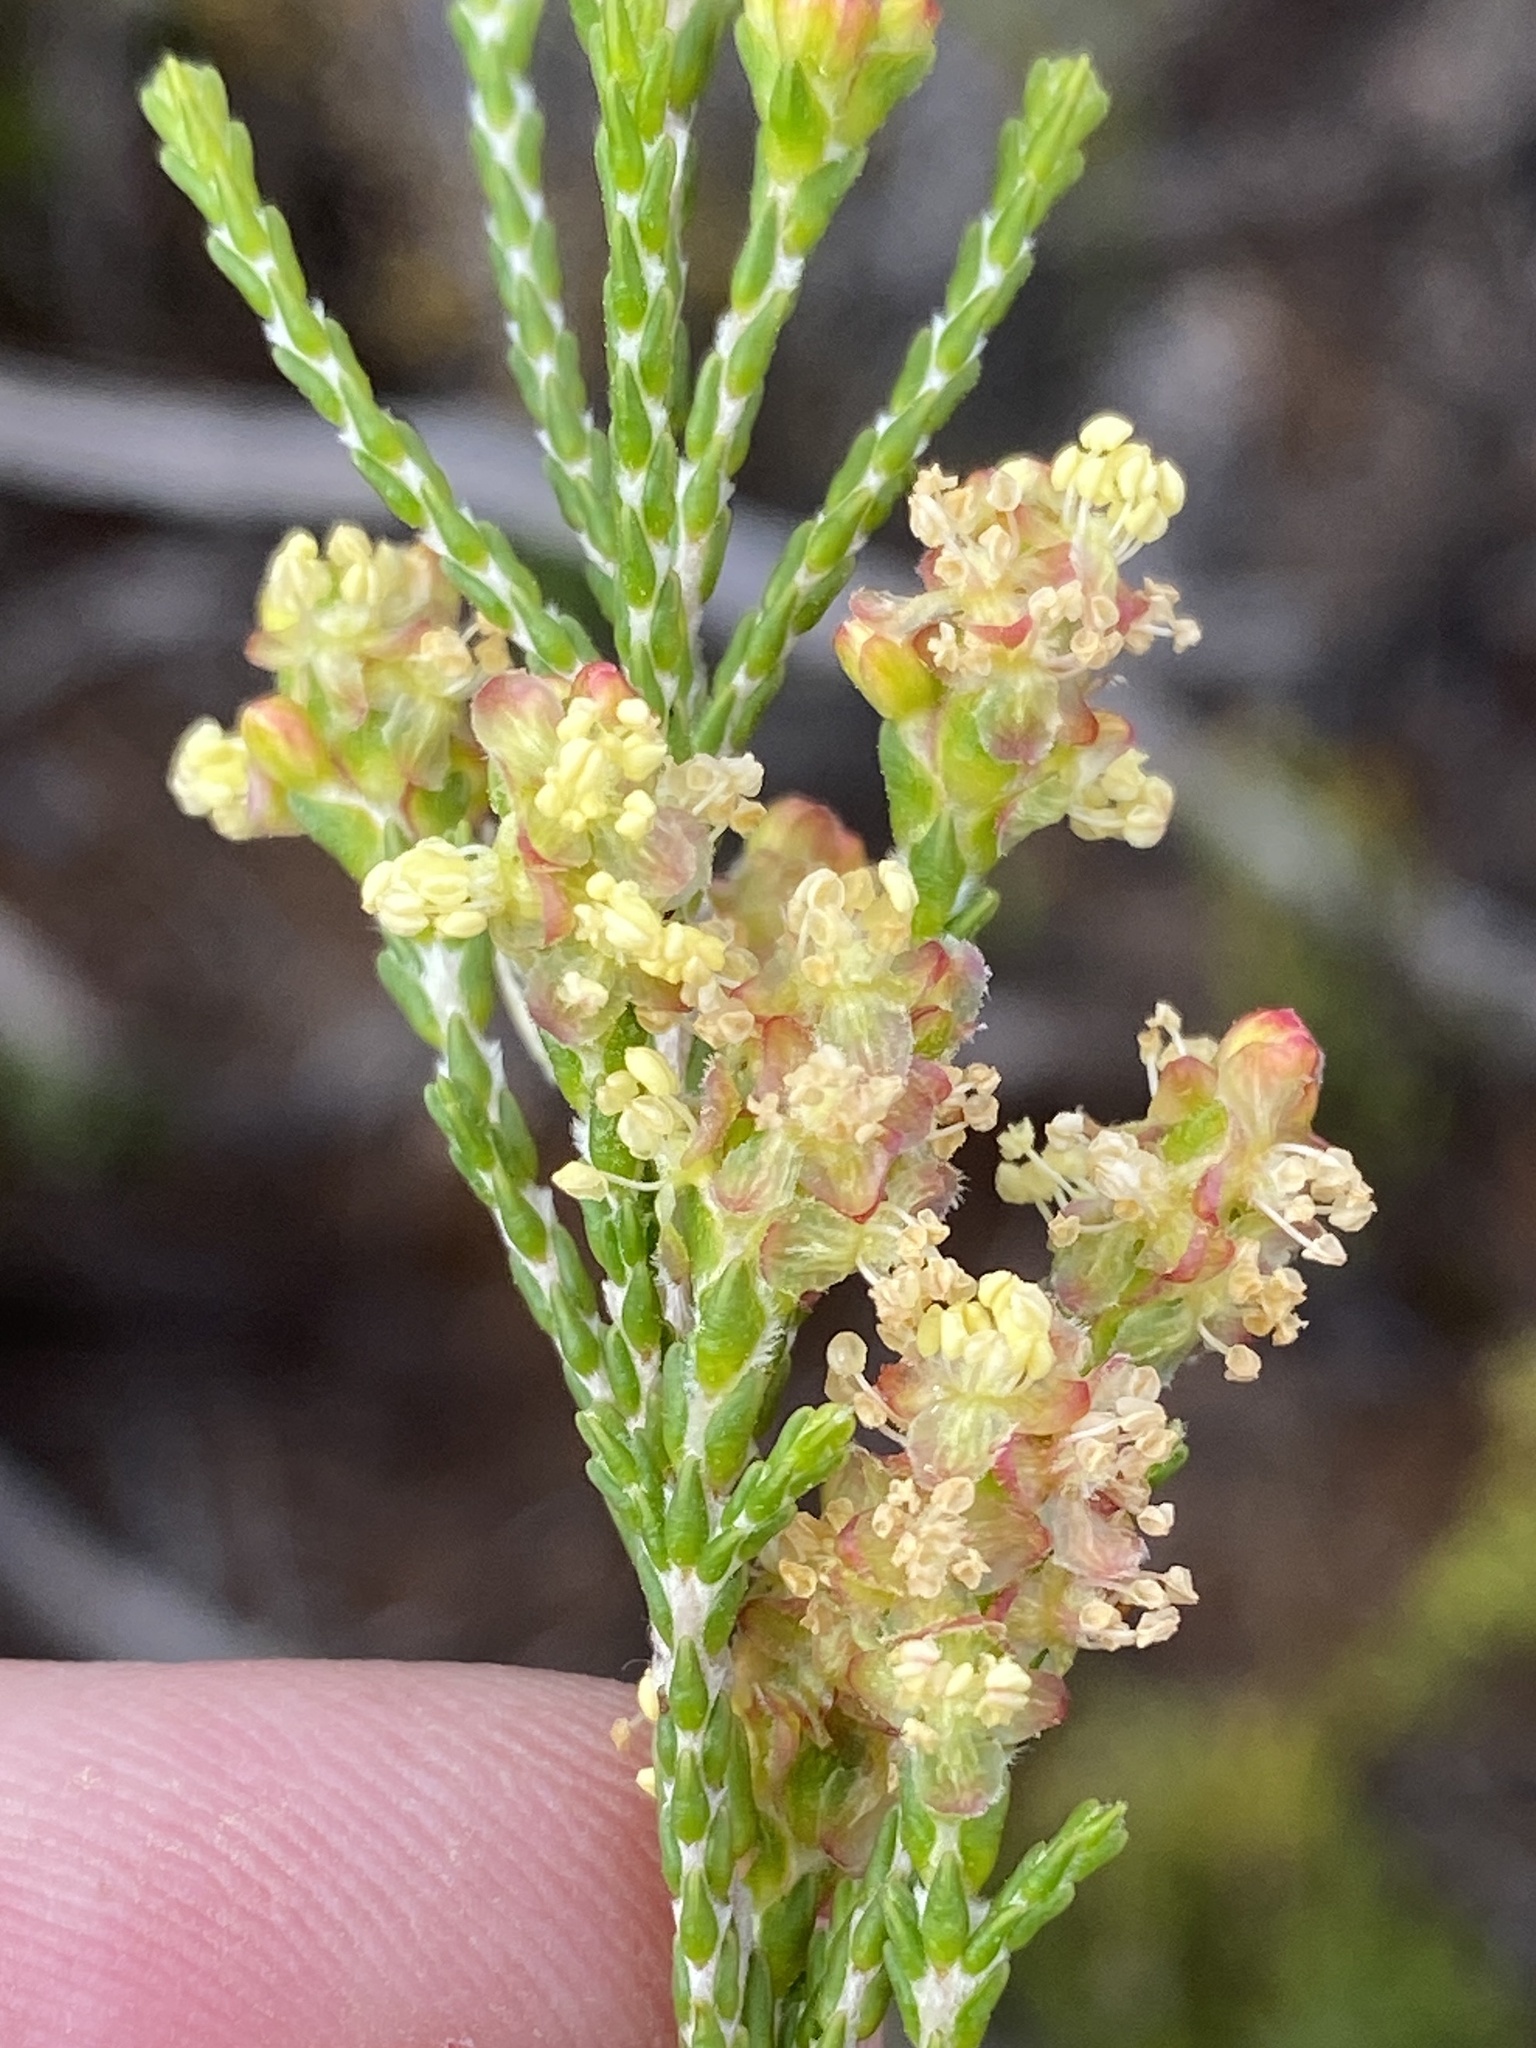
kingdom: Plantae
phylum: Tracheophyta
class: Magnoliopsida
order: Malvales
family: Thymelaeaceae
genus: Passerina
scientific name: Passerina corymbosa
